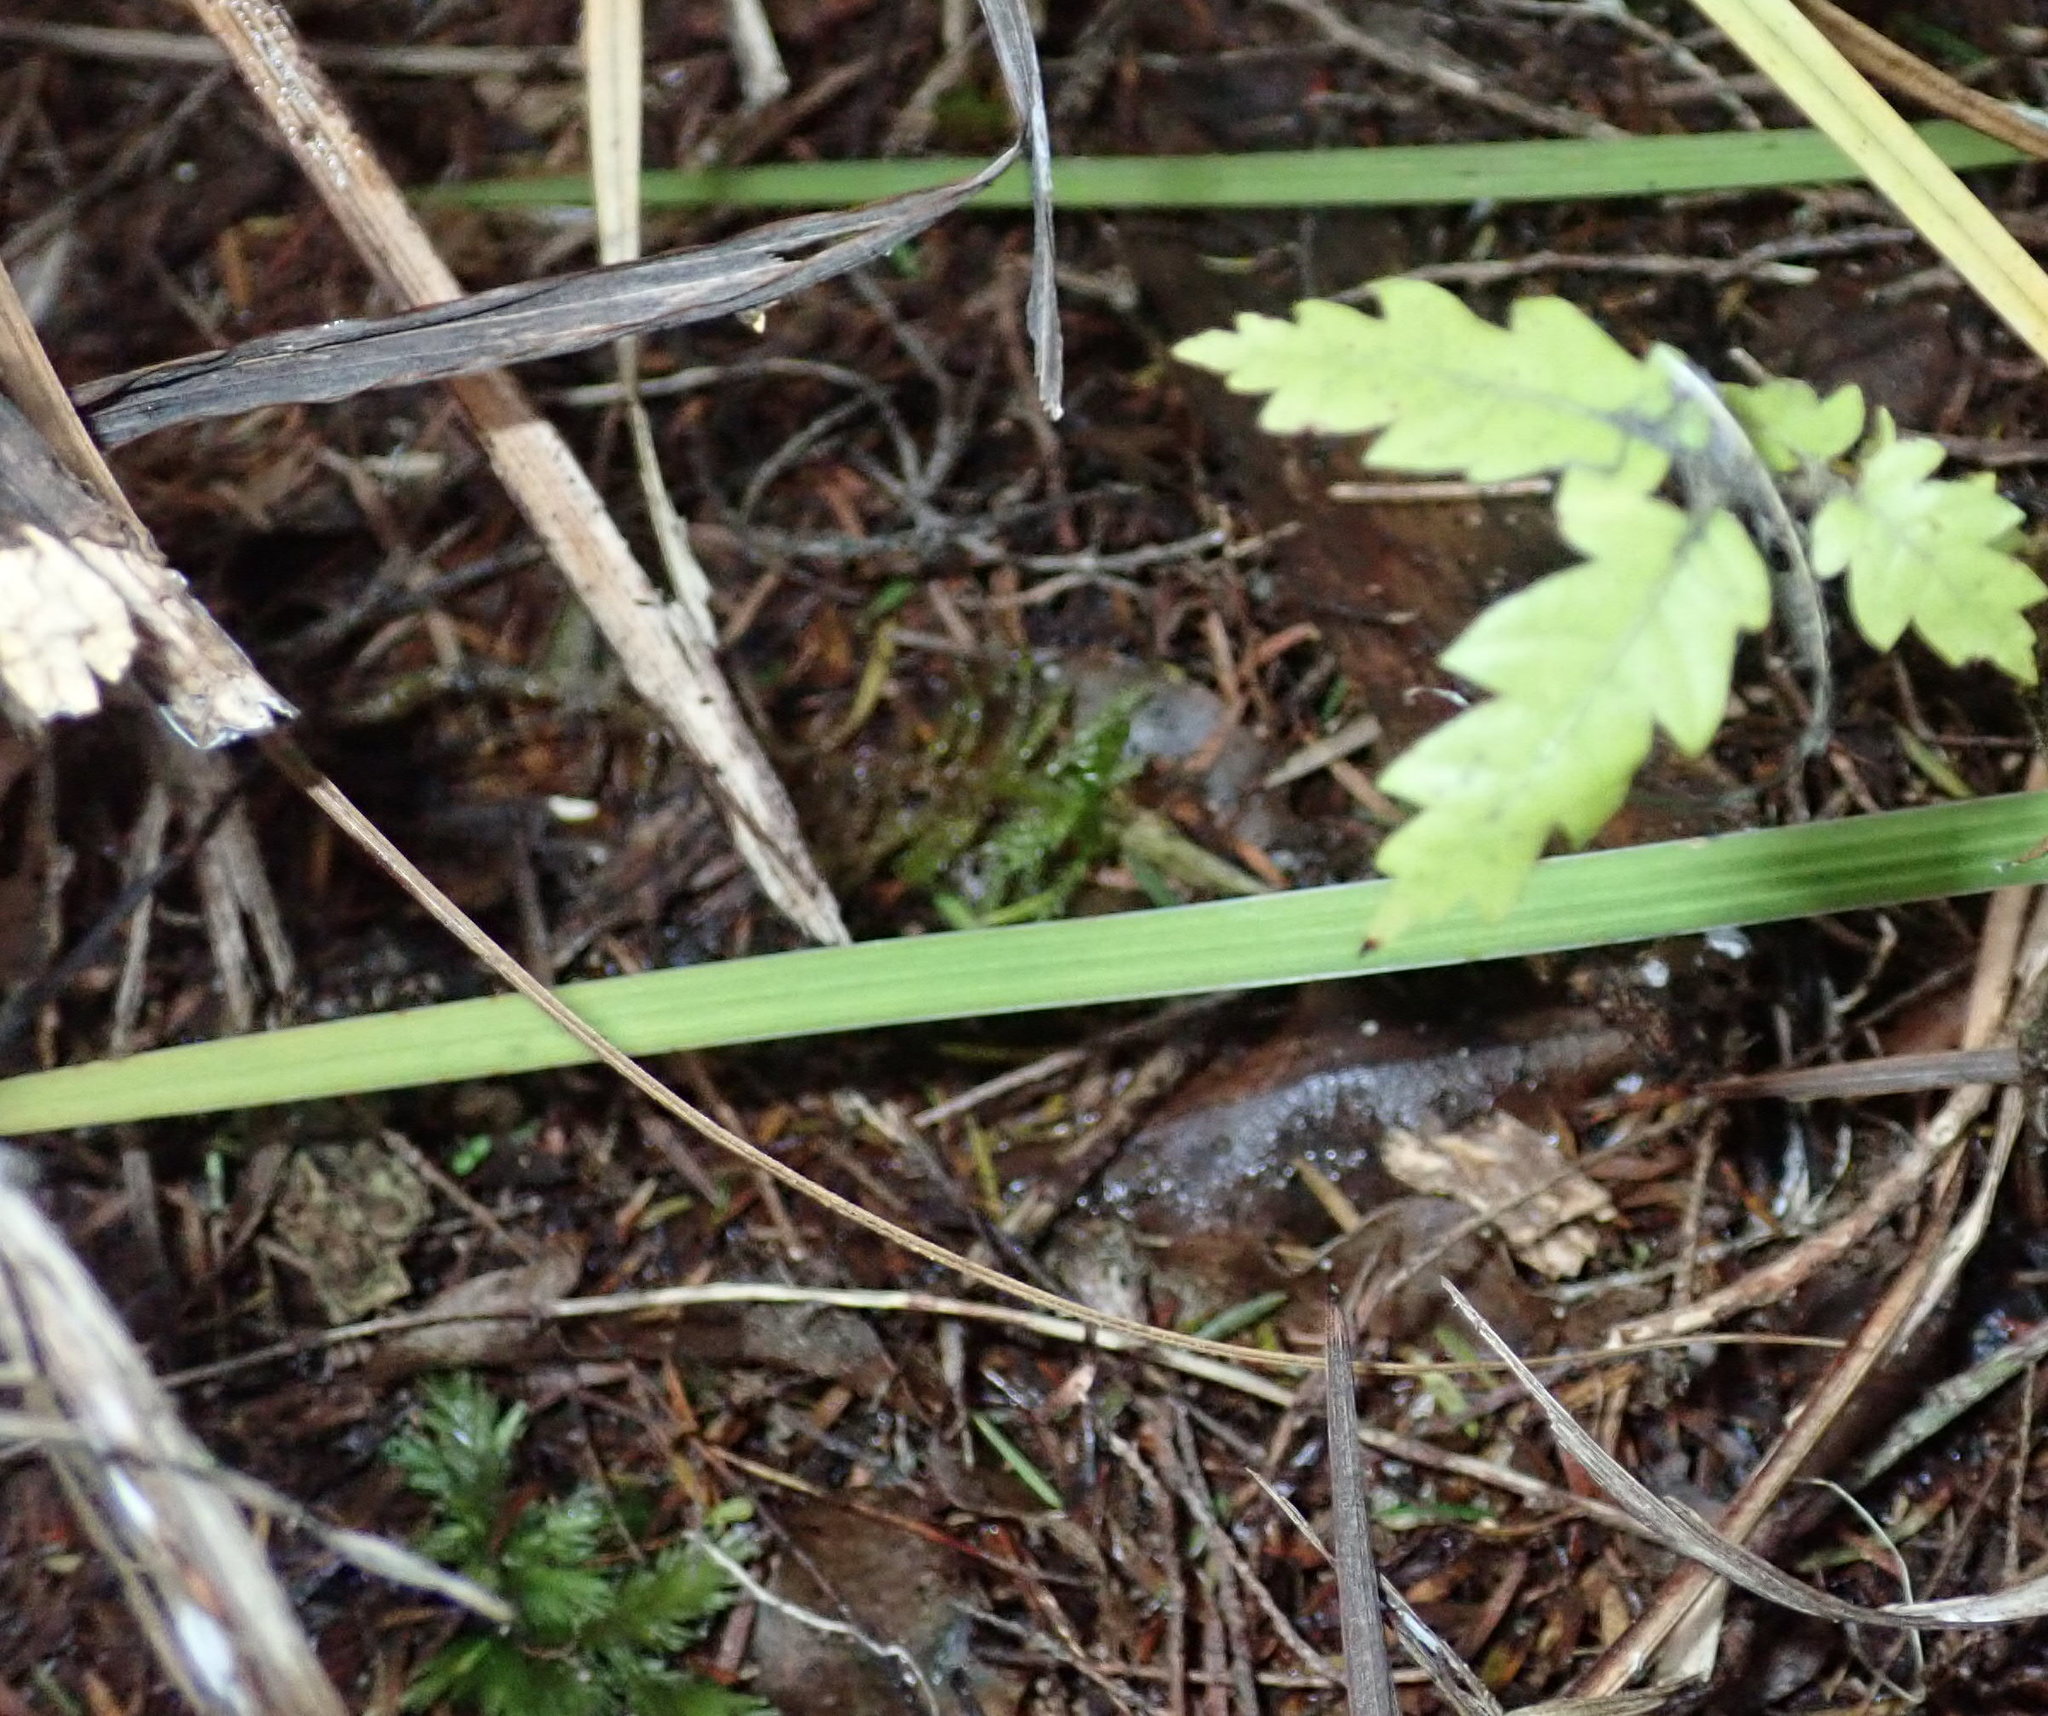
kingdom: Plantae
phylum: Tracheophyta
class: Magnoliopsida
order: Sapindales
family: Sapindaceae
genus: Alectryon
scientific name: Alectryon excelsus
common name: Three kings titoki
